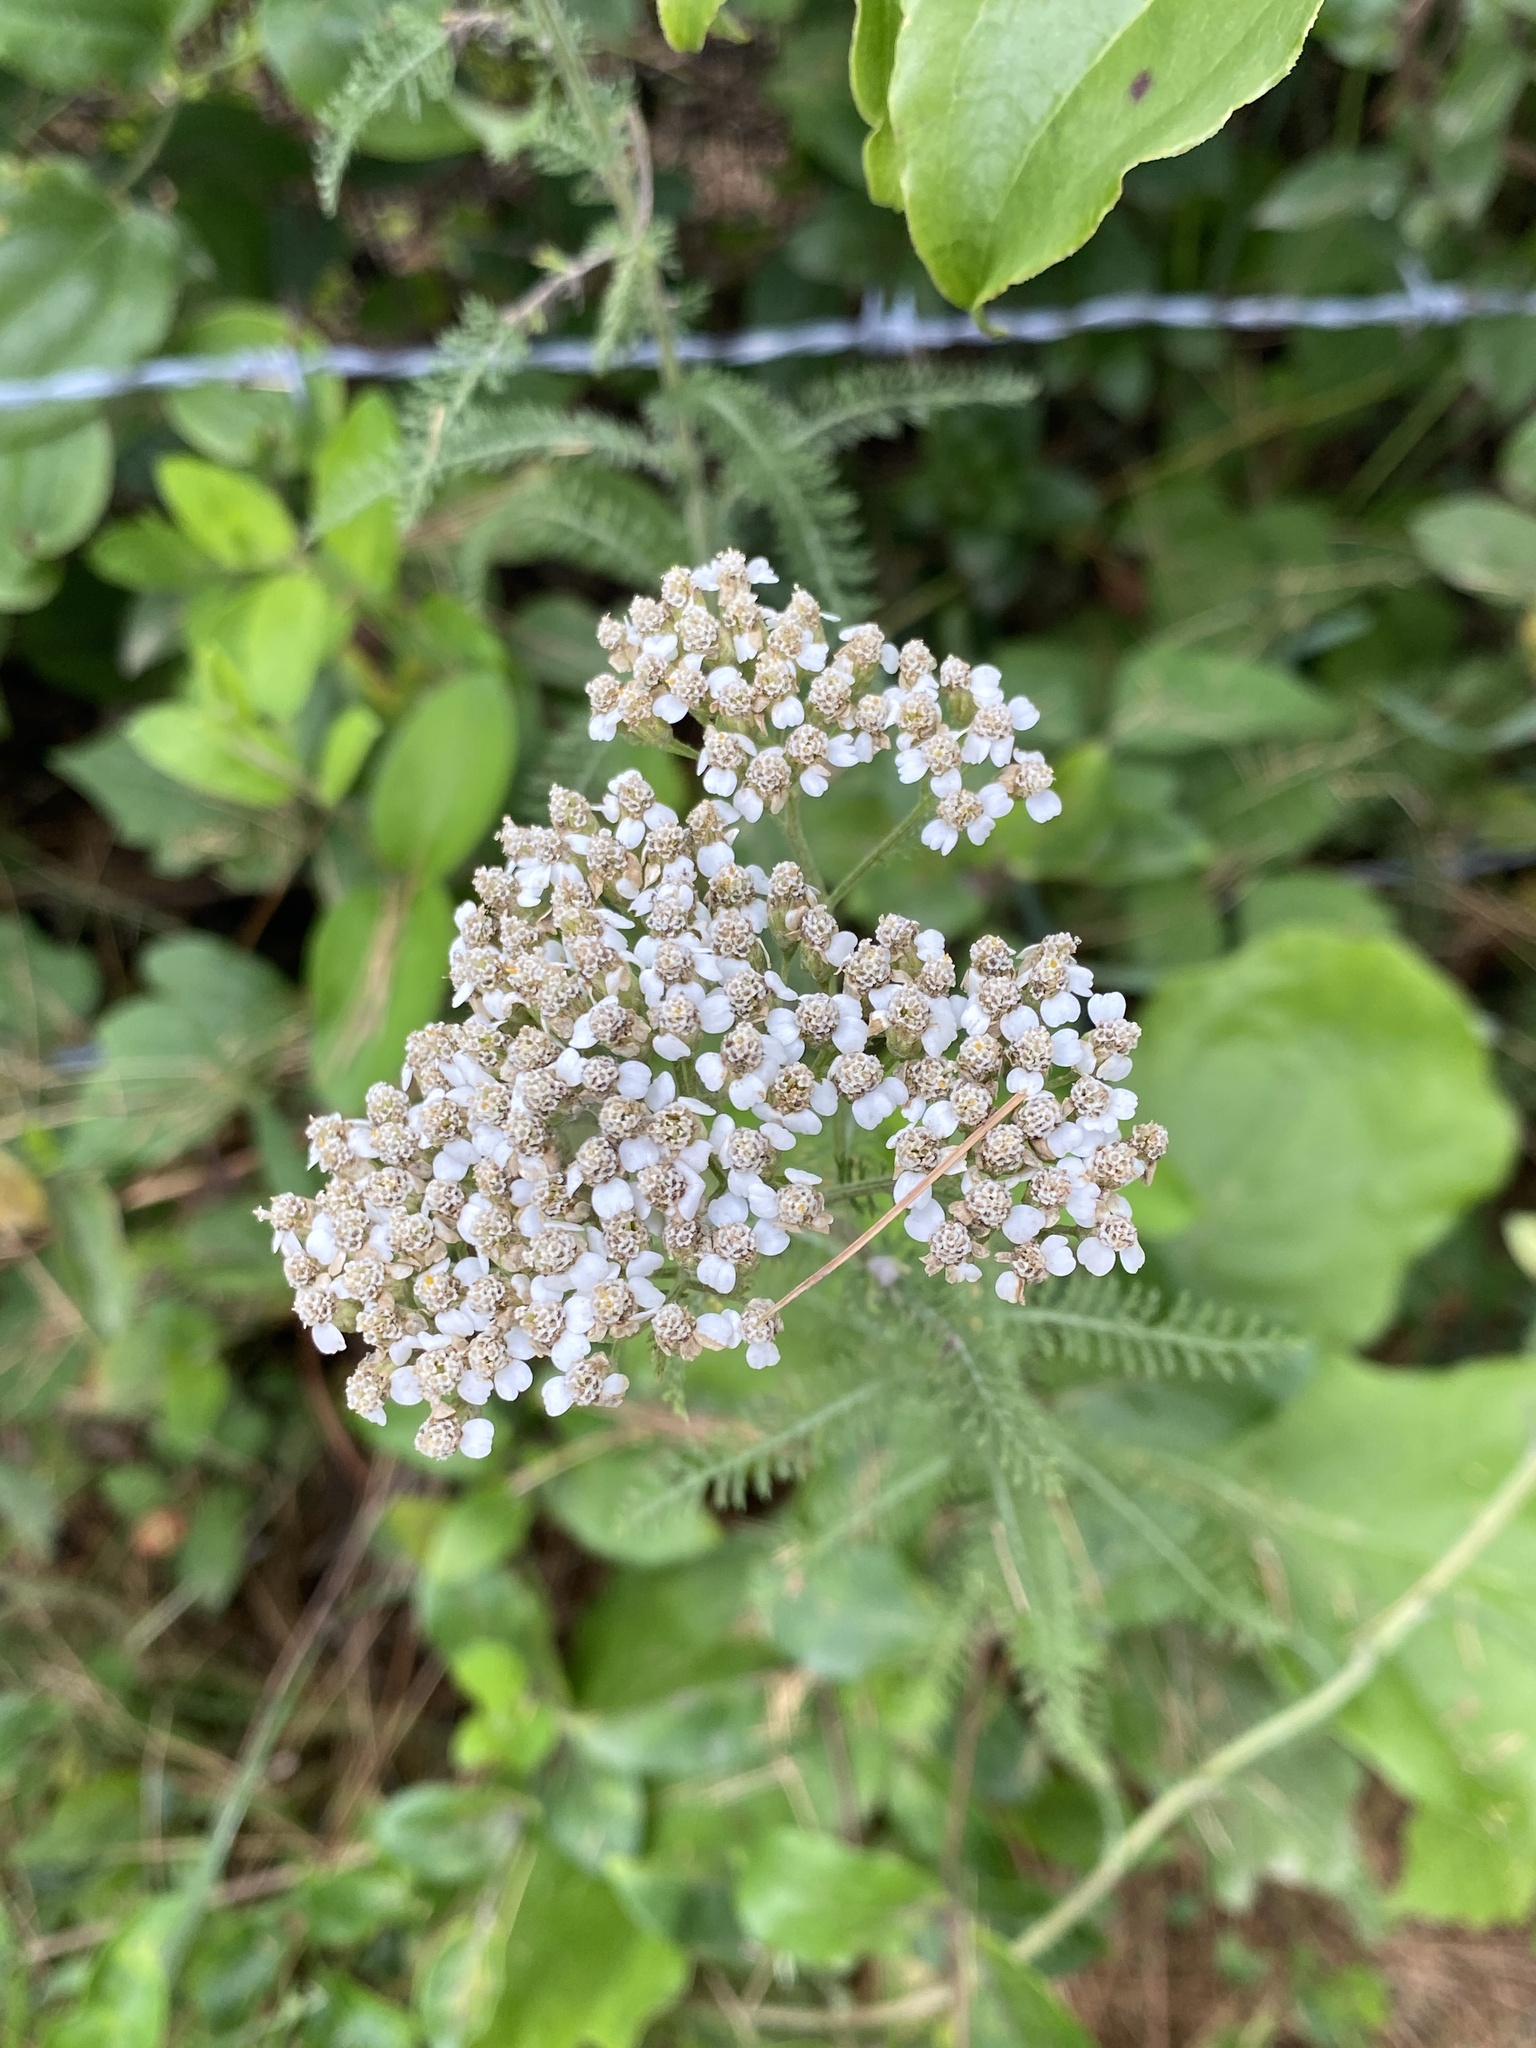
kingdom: Plantae
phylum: Tracheophyta
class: Magnoliopsida
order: Asterales
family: Asteraceae
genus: Achillea
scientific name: Achillea millefolium
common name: Yarrow
